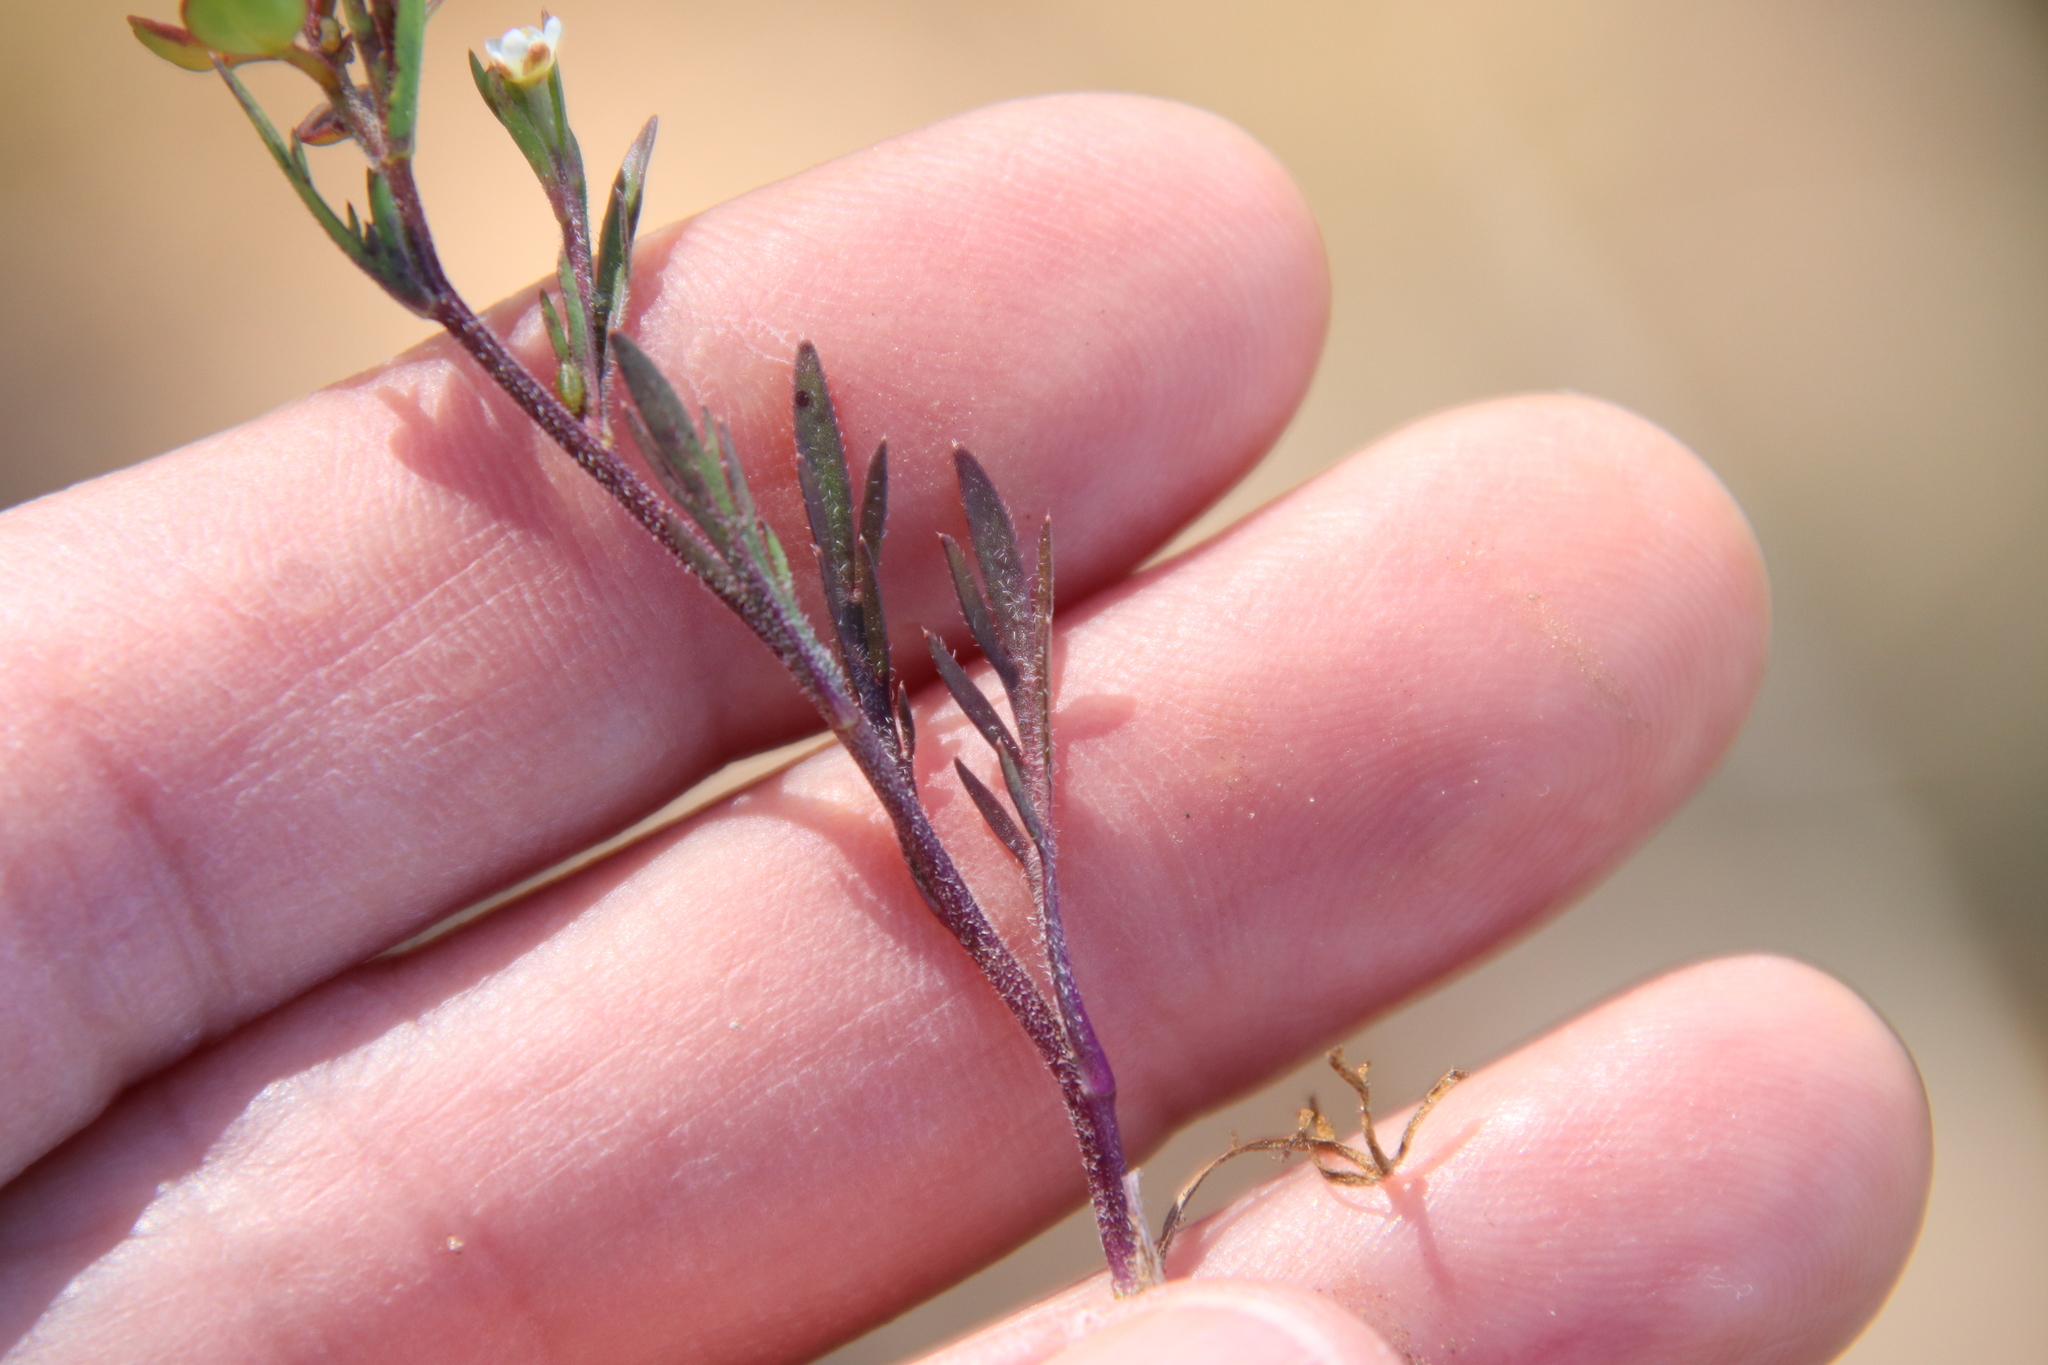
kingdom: Plantae
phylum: Tracheophyta
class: Magnoliopsida
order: Brassicales
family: Brassicaceae
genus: Lepidium
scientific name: Lepidium nitidum
